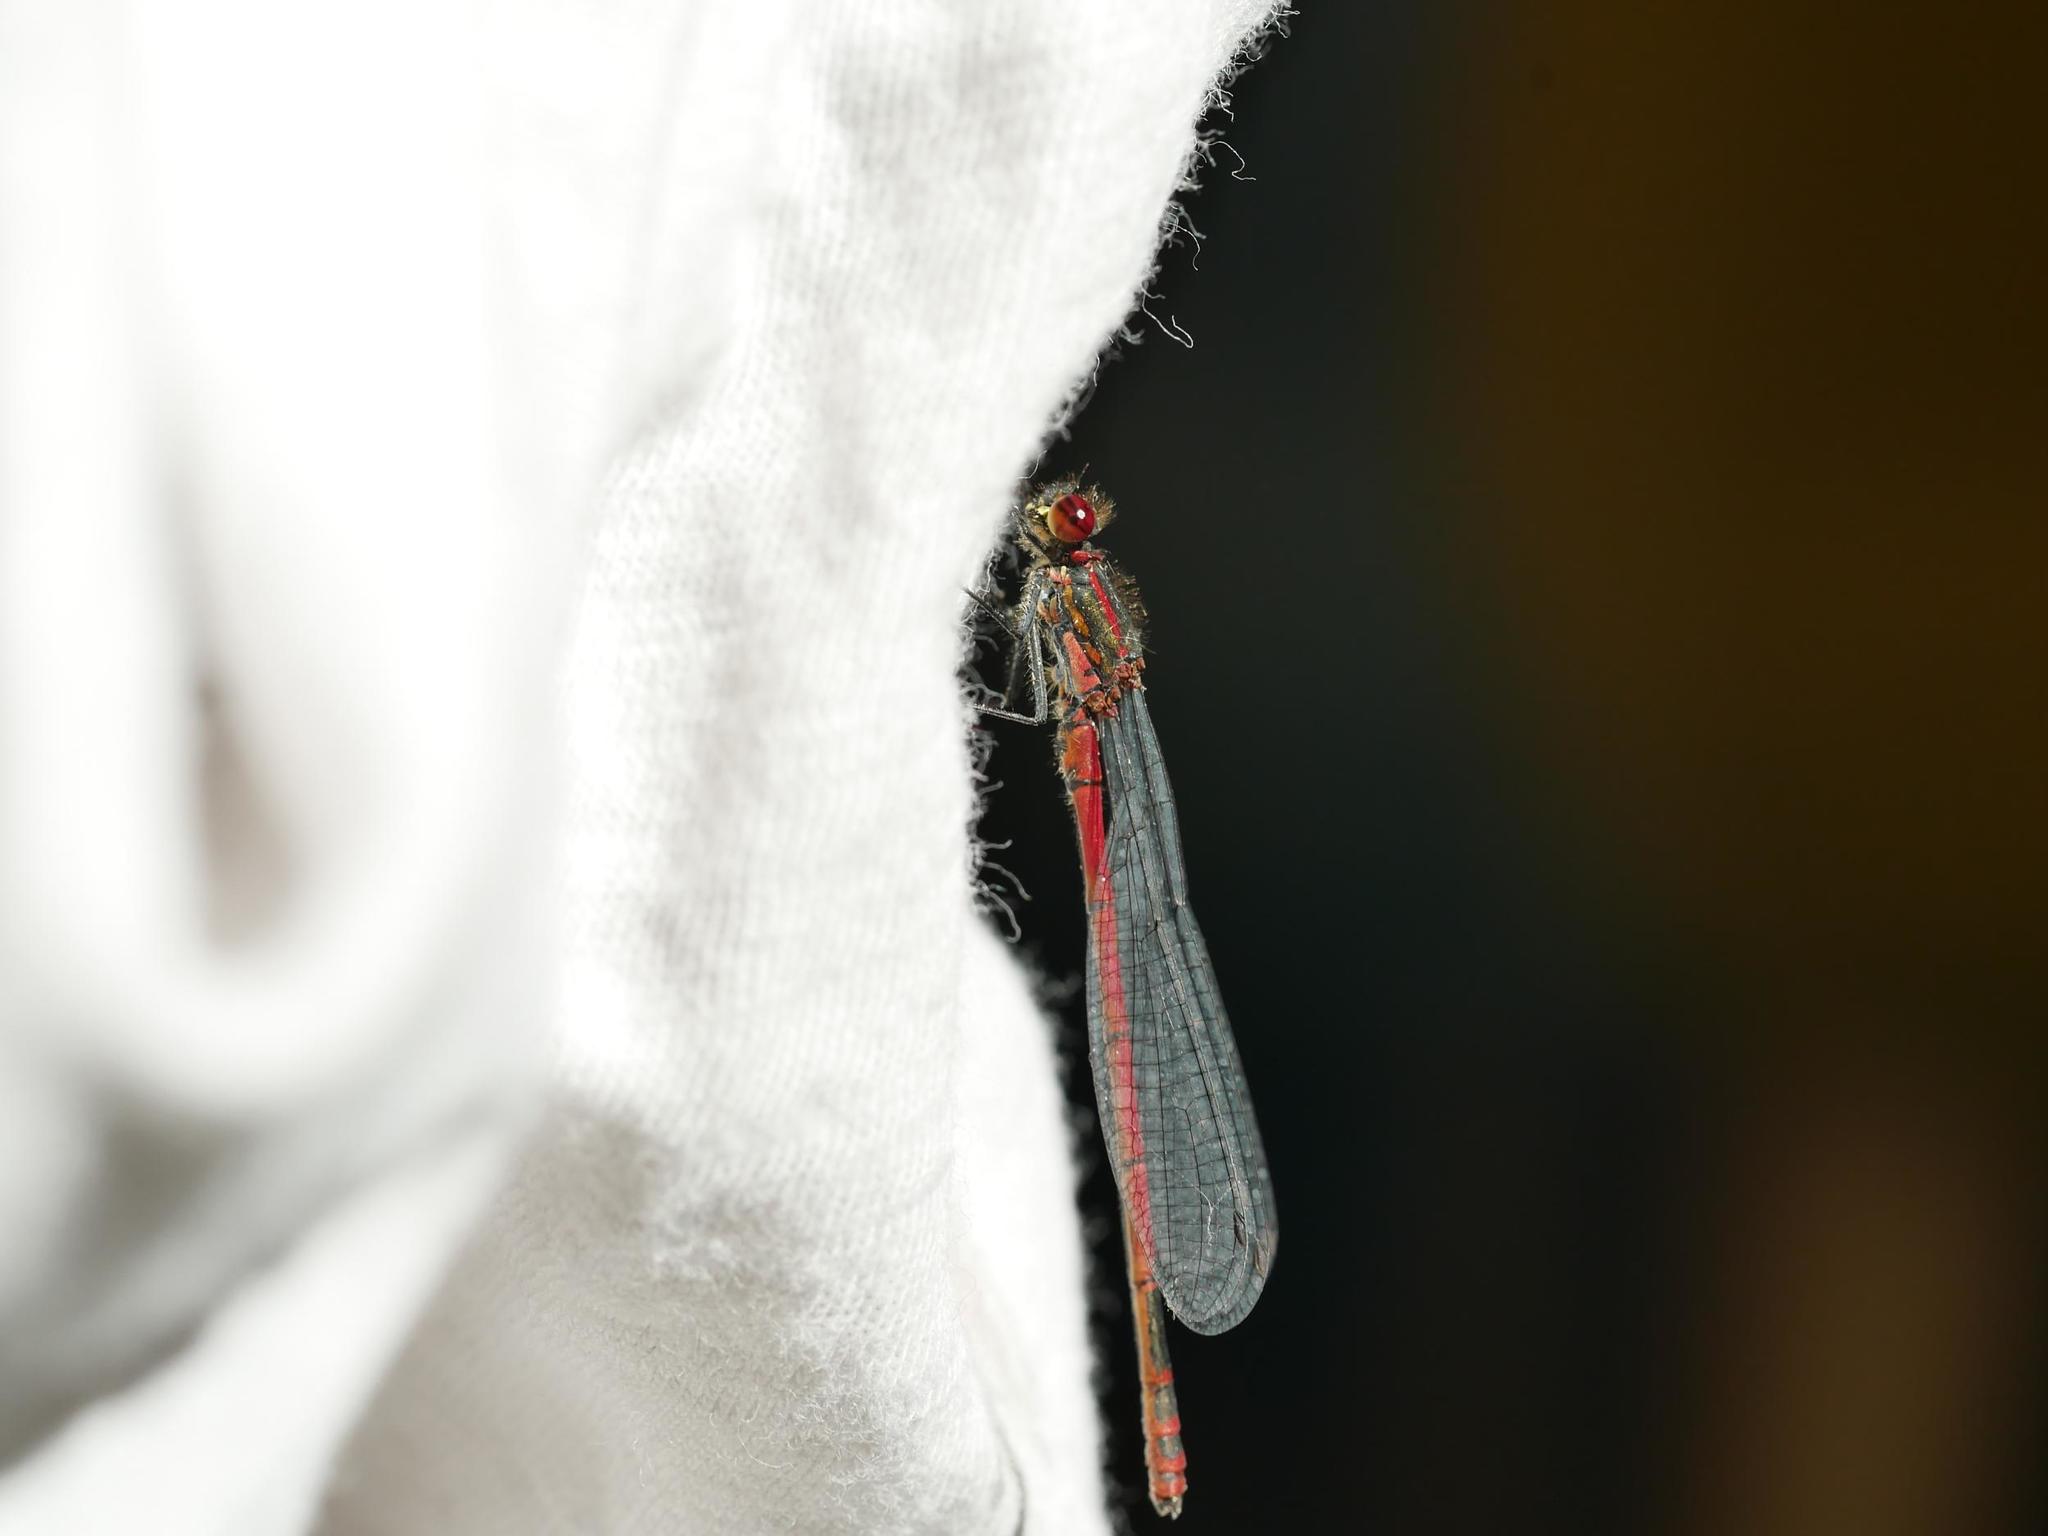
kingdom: Animalia
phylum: Arthropoda
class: Insecta
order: Odonata
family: Coenagrionidae
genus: Pyrrhosoma
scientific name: Pyrrhosoma nymphula
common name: Large red damsel
